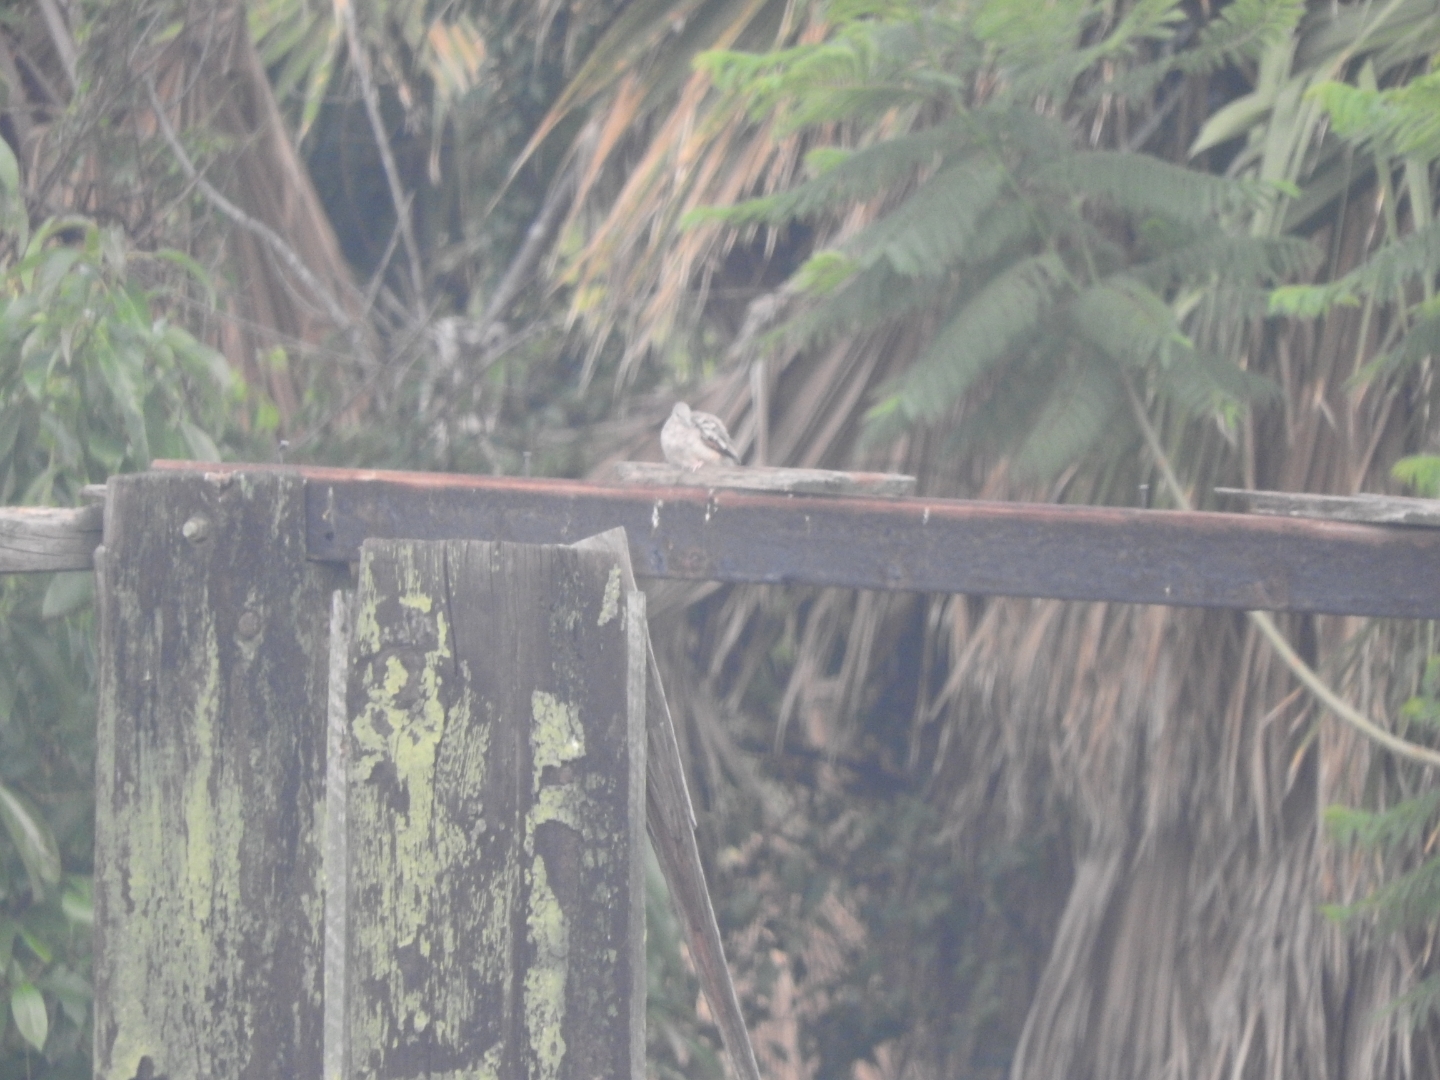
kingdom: Animalia
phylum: Chordata
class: Aves
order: Columbiformes
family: Columbidae
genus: Columbina
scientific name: Columbina inca
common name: Inca dove
